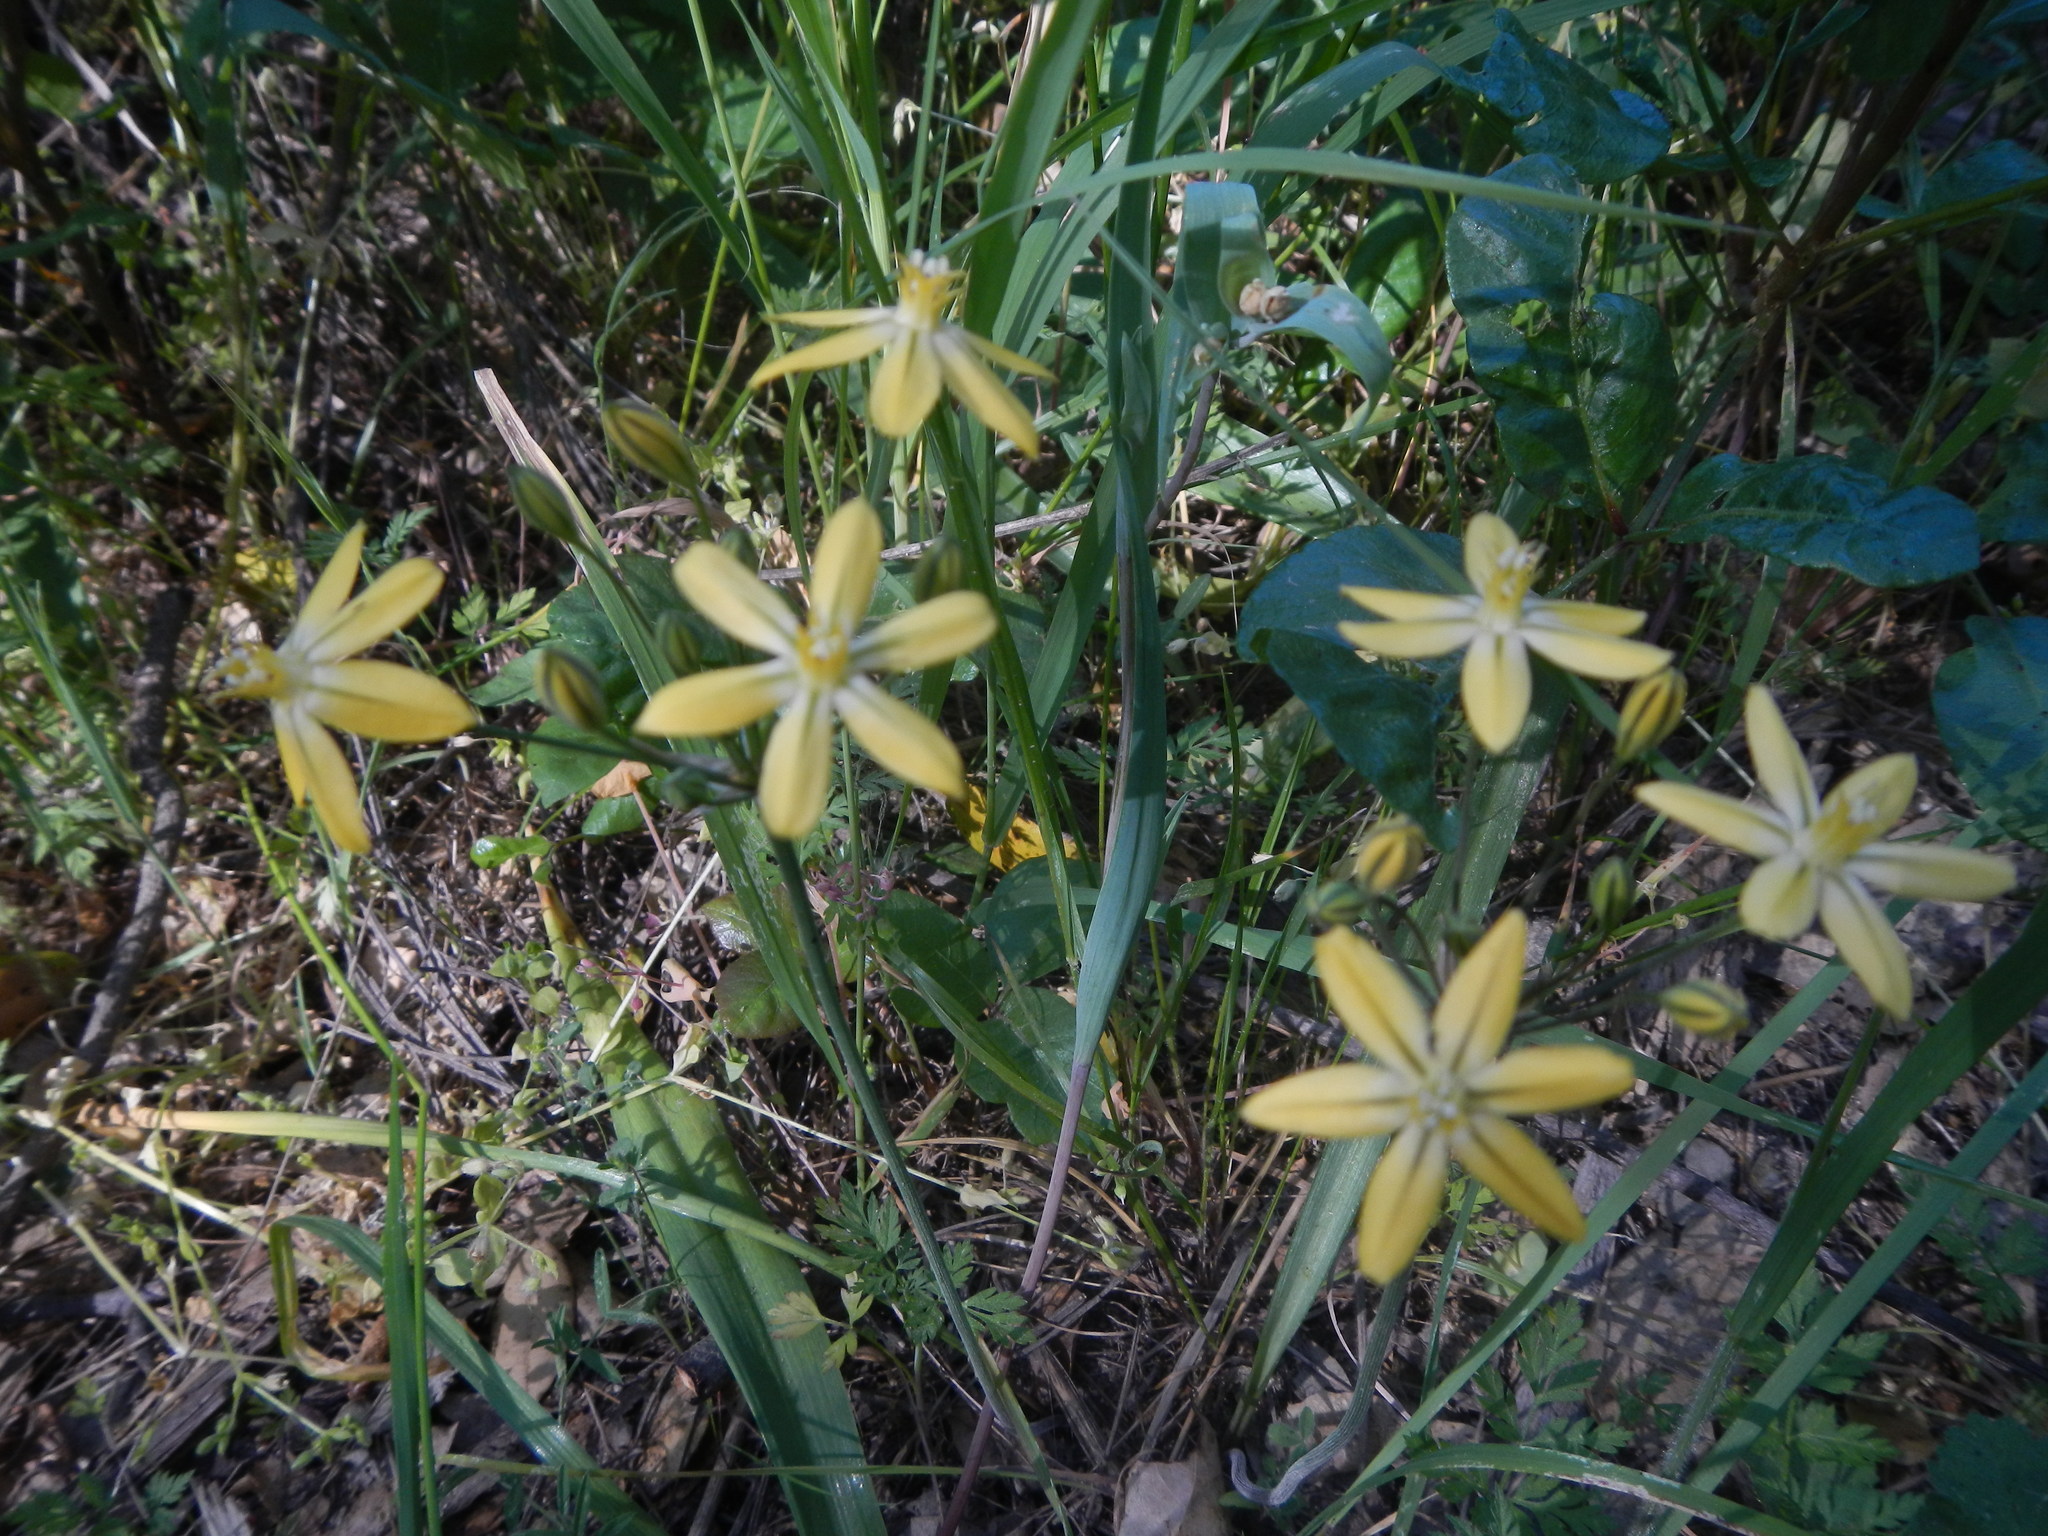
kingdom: Plantae
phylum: Tracheophyta
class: Liliopsida
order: Asparagales
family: Asparagaceae
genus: Triteleia
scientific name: Triteleia ixioides
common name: Yellow-brodiaea
